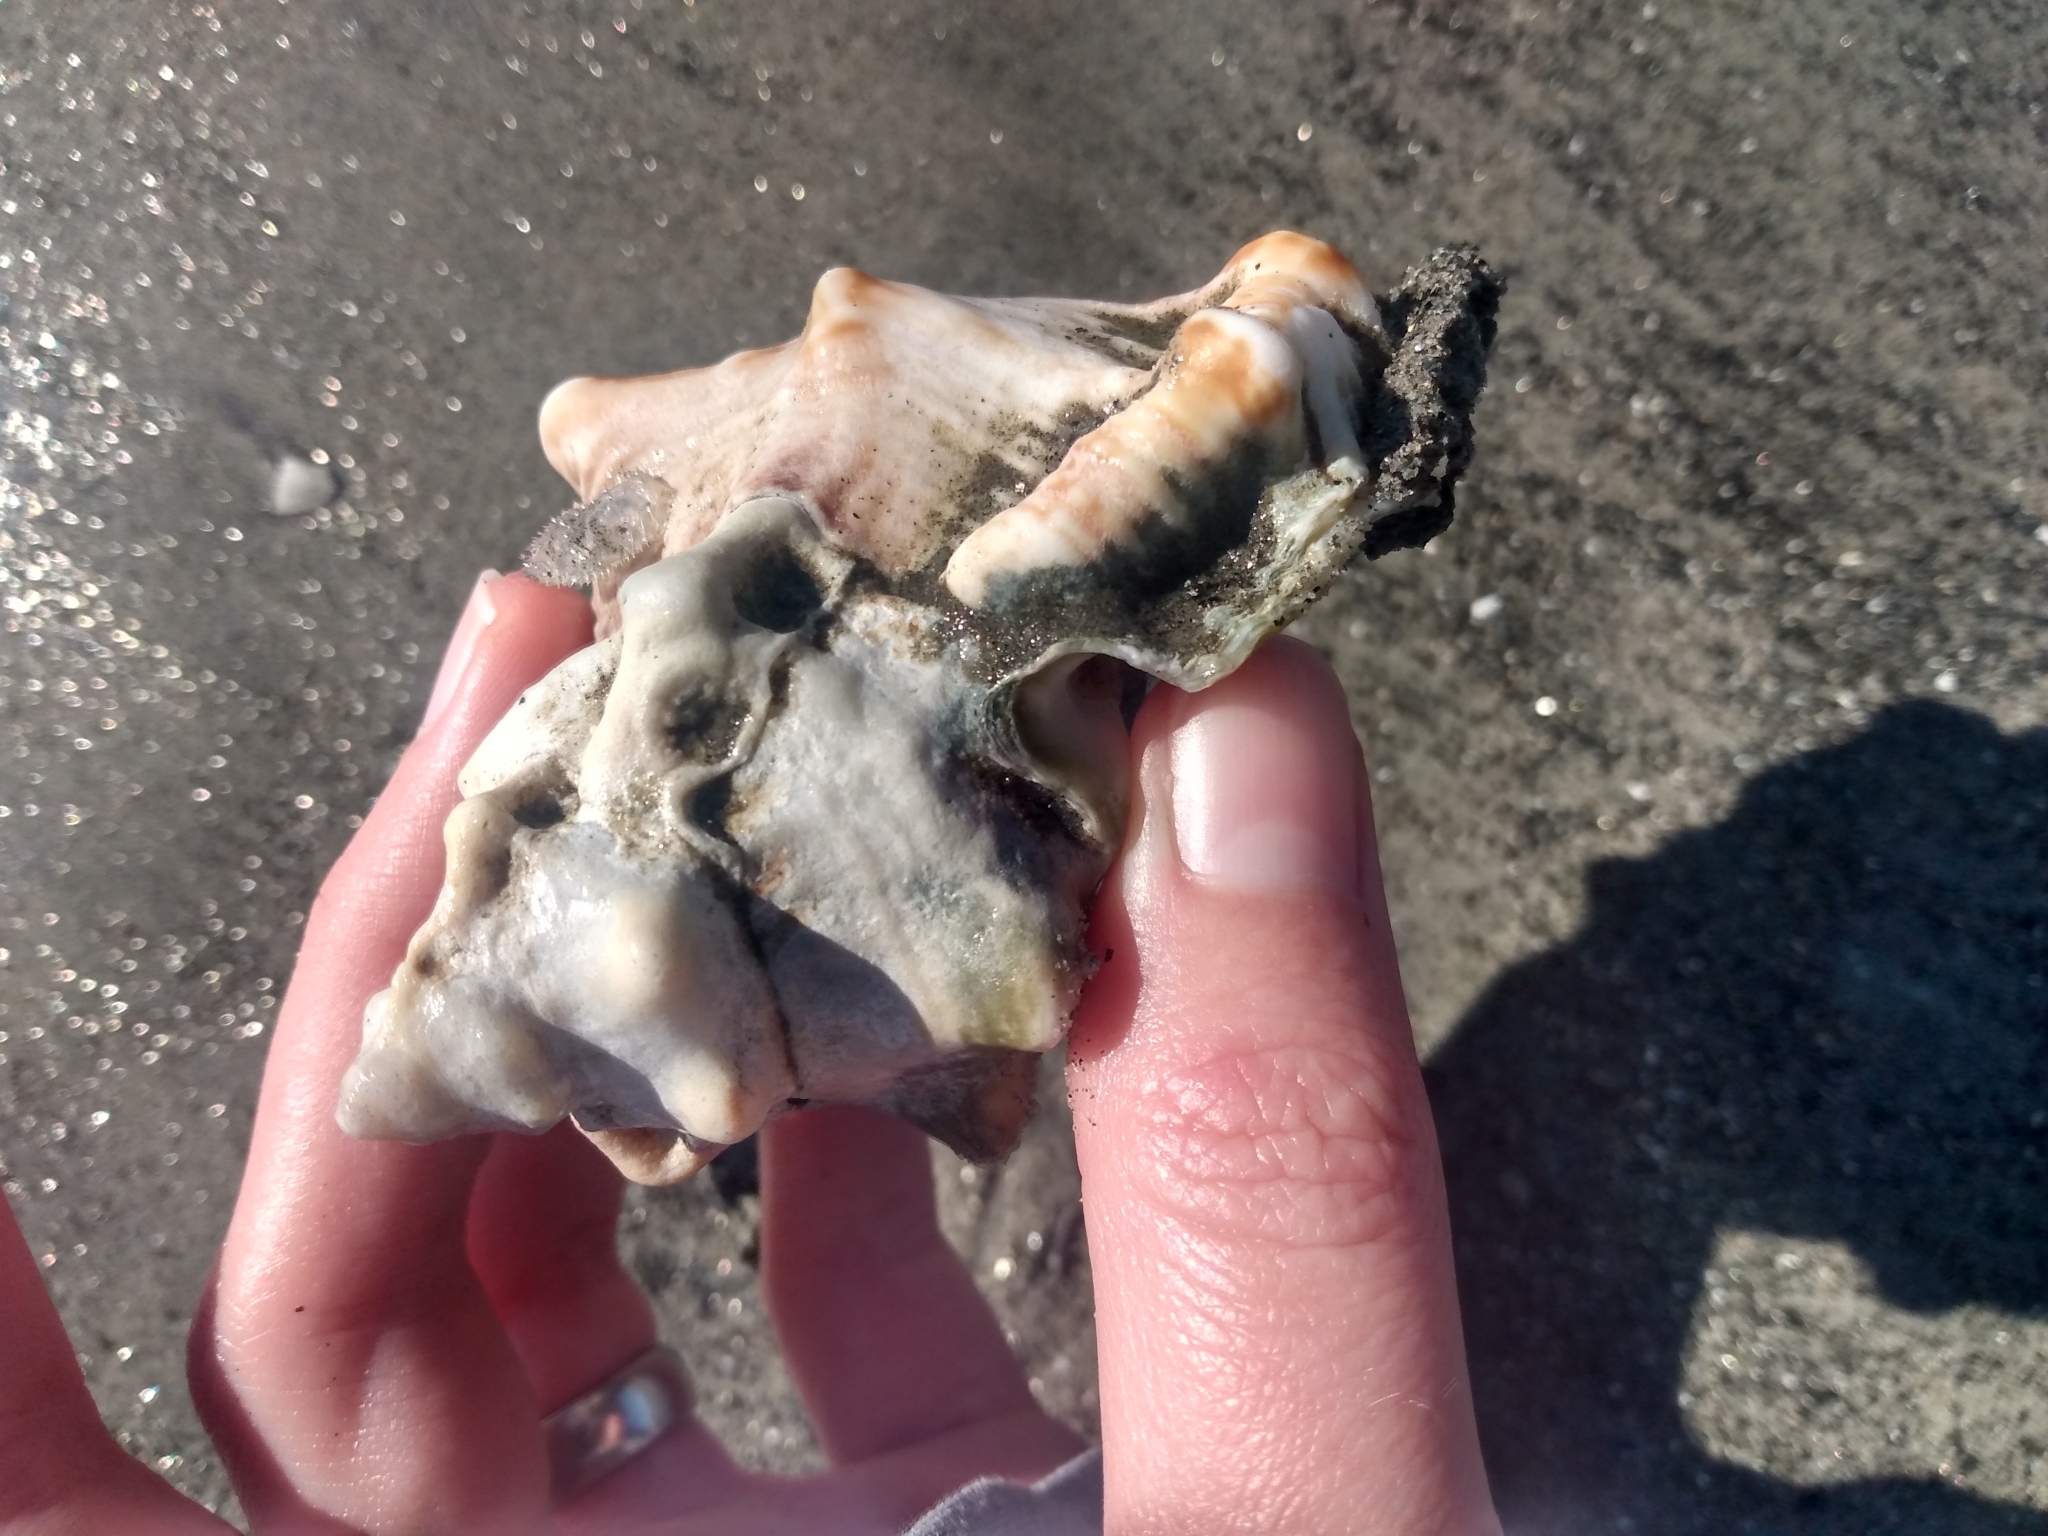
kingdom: Animalia
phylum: Mollusca
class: Gastropoda
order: Littorinimorpha
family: Bursidae
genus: Crossata
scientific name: Crossata californica
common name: California frogsnail
